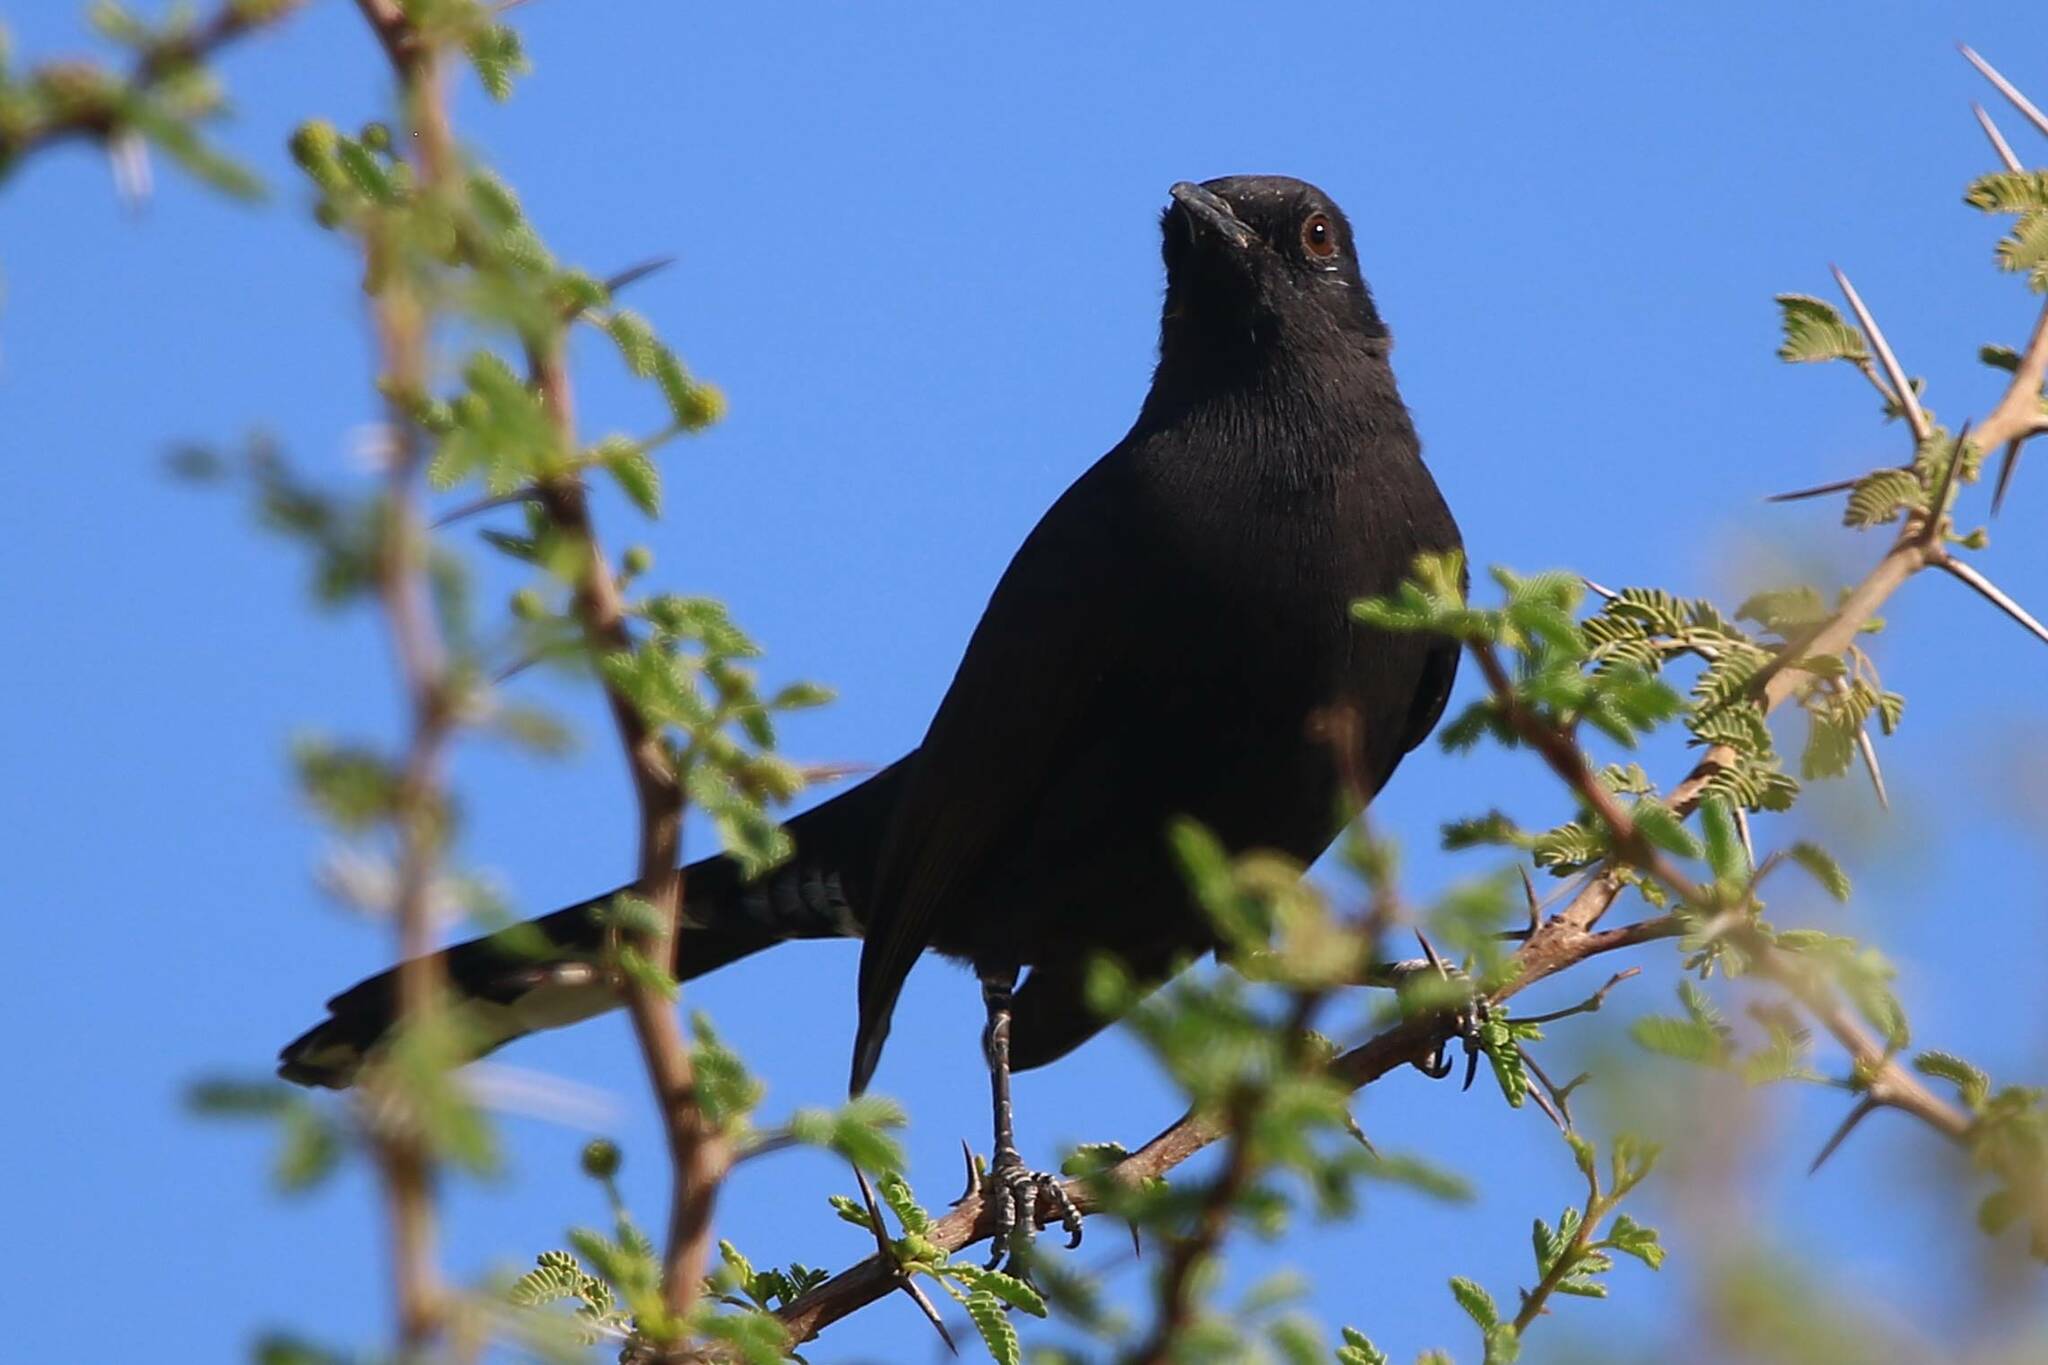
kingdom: Animalia
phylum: Chordata
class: Aves
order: Passeriformes
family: Muscicapidae
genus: Cercotrichas
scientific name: Cercotrichas podobe
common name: Black scrub robin
